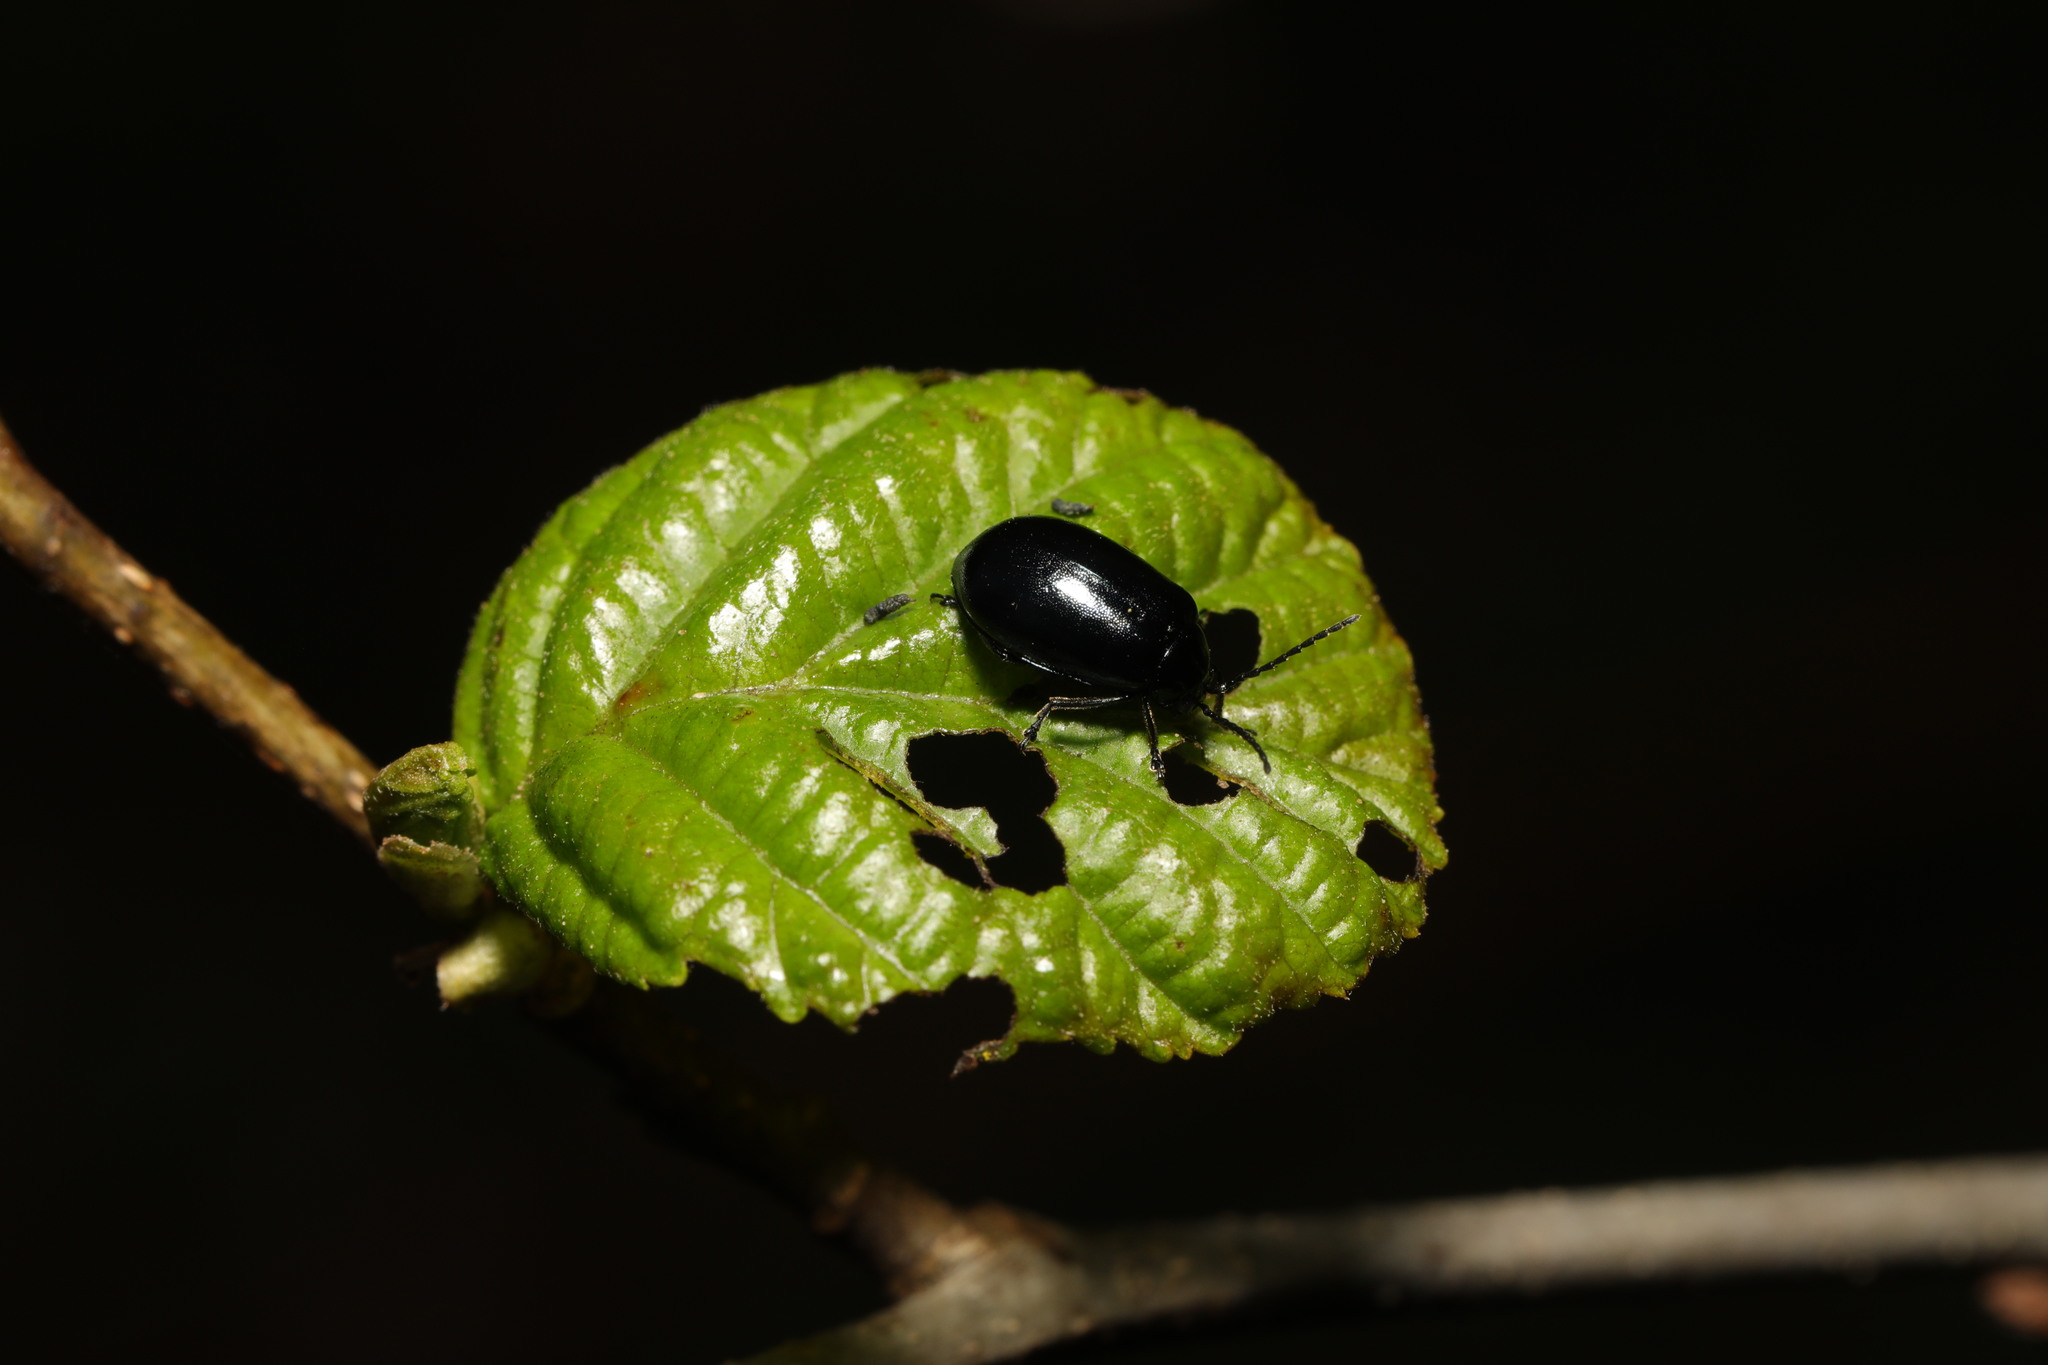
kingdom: Animalia
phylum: Arthropoda
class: Insecta
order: Coleoptera
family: Chrysomelidae
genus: Agelastica
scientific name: Agelastica alni
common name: Alder leaf beetle
